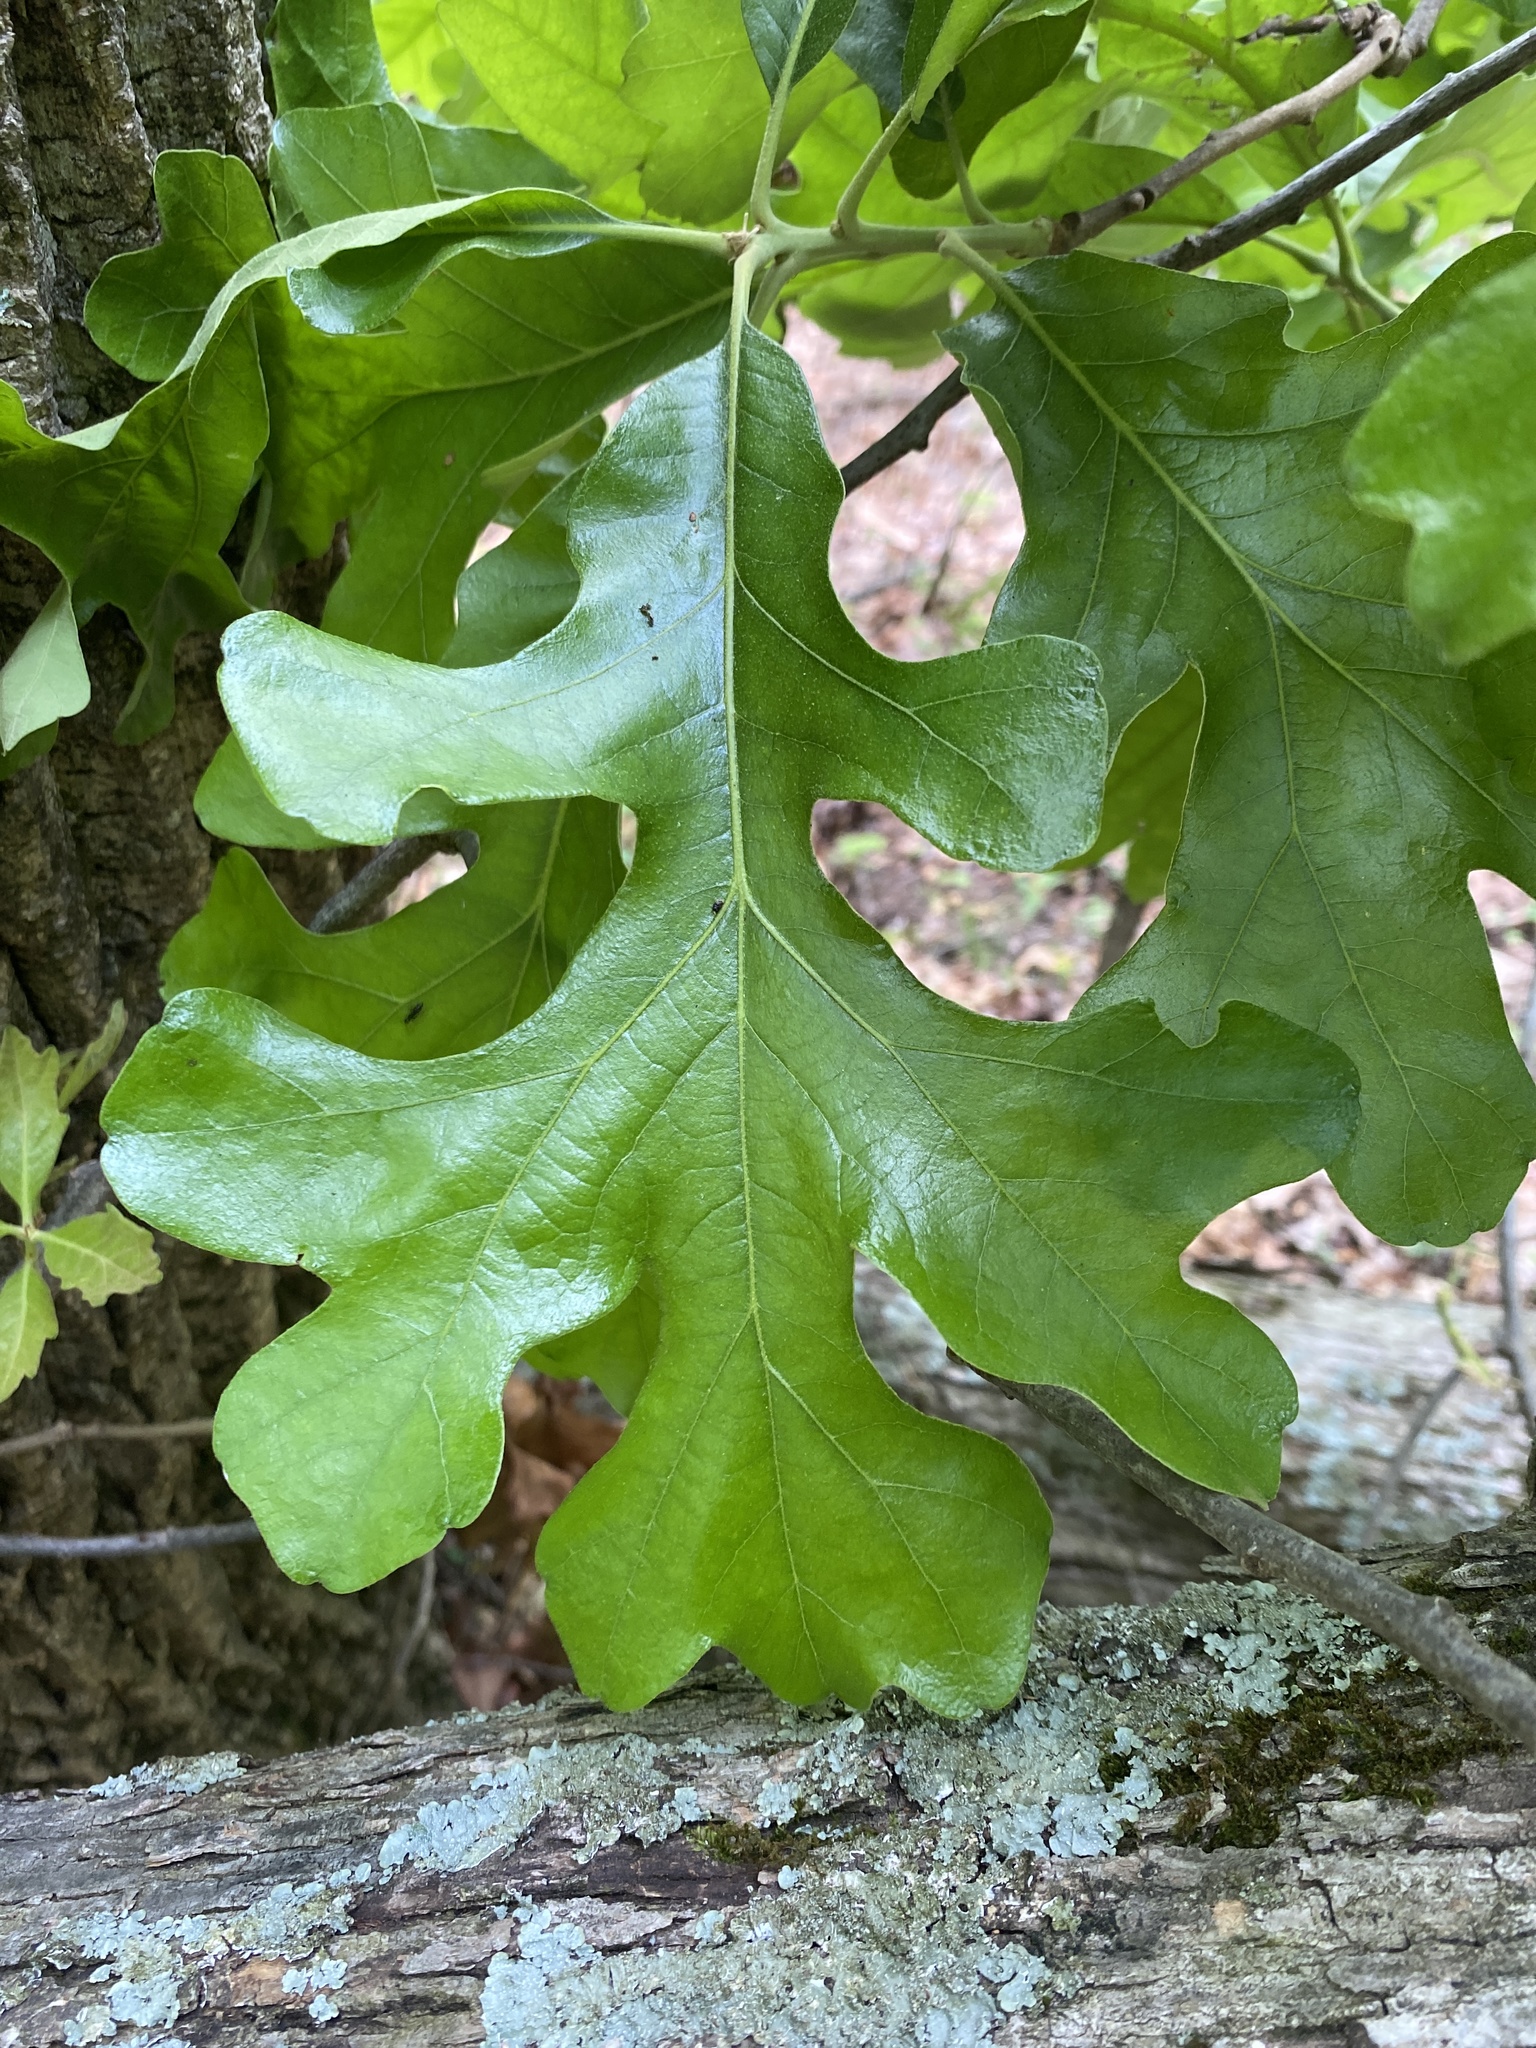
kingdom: Plantae
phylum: Tracheophyta
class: Magnoliopsida
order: Fagales
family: Fagaceae
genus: Quercus
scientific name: Quercus stellata
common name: Post oak
